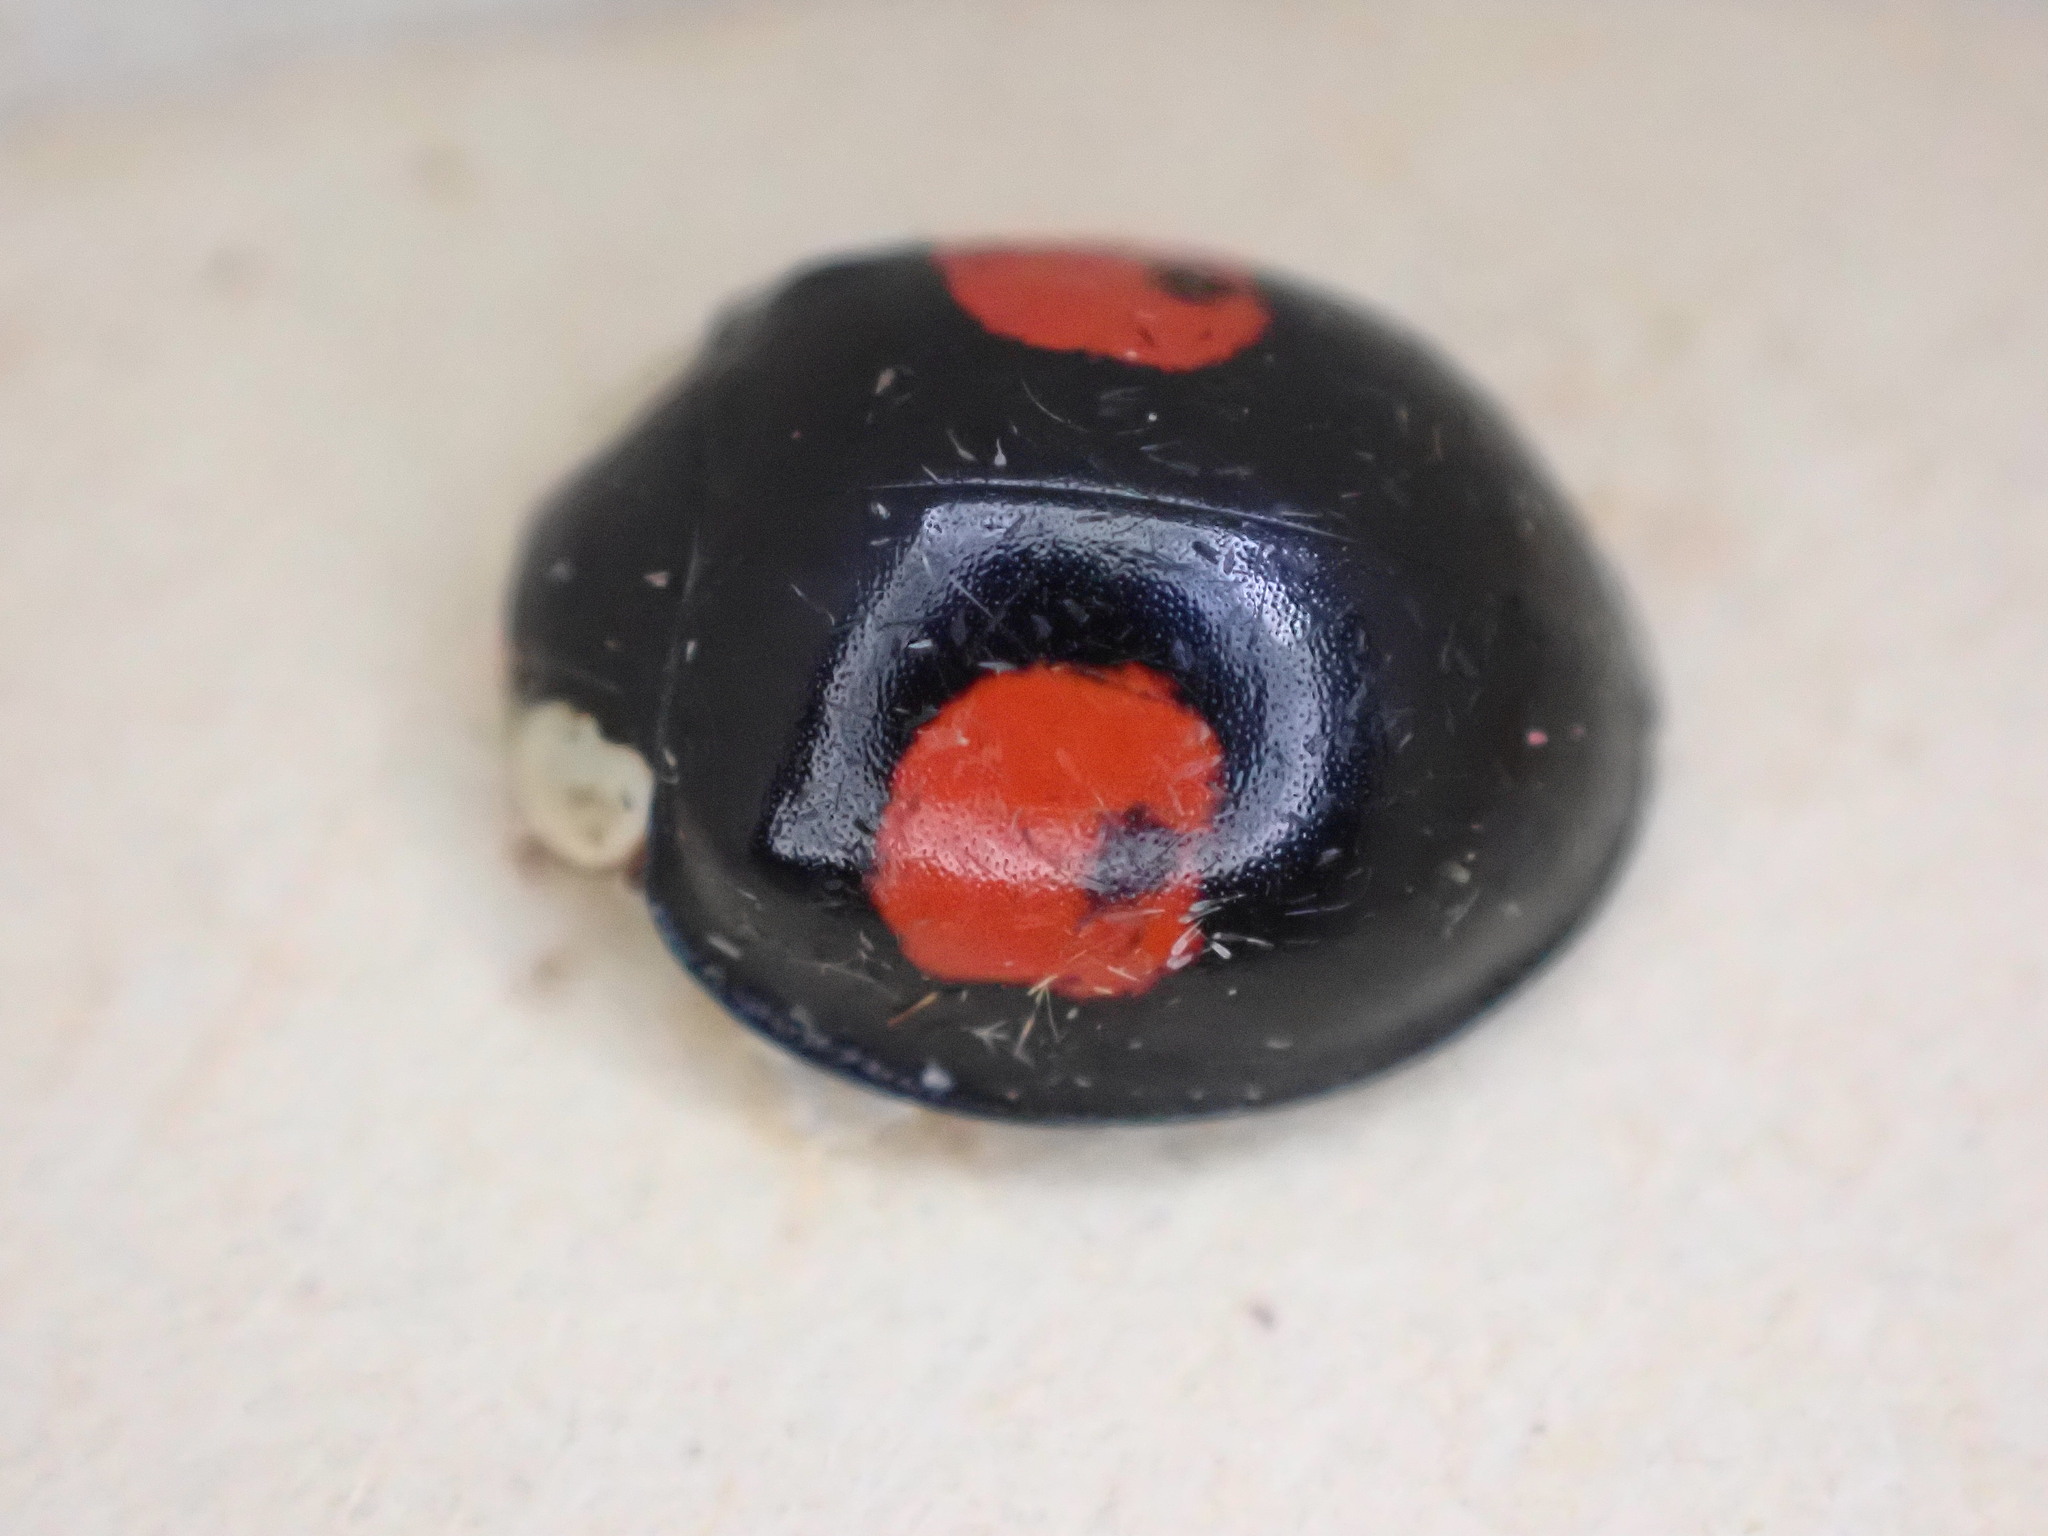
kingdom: Animalia
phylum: Arthropoda
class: Insecta
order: Coleoptera
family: Coccinellidae
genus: Harmonia
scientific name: Harmonia axyridis
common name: Harlequin ladybird
